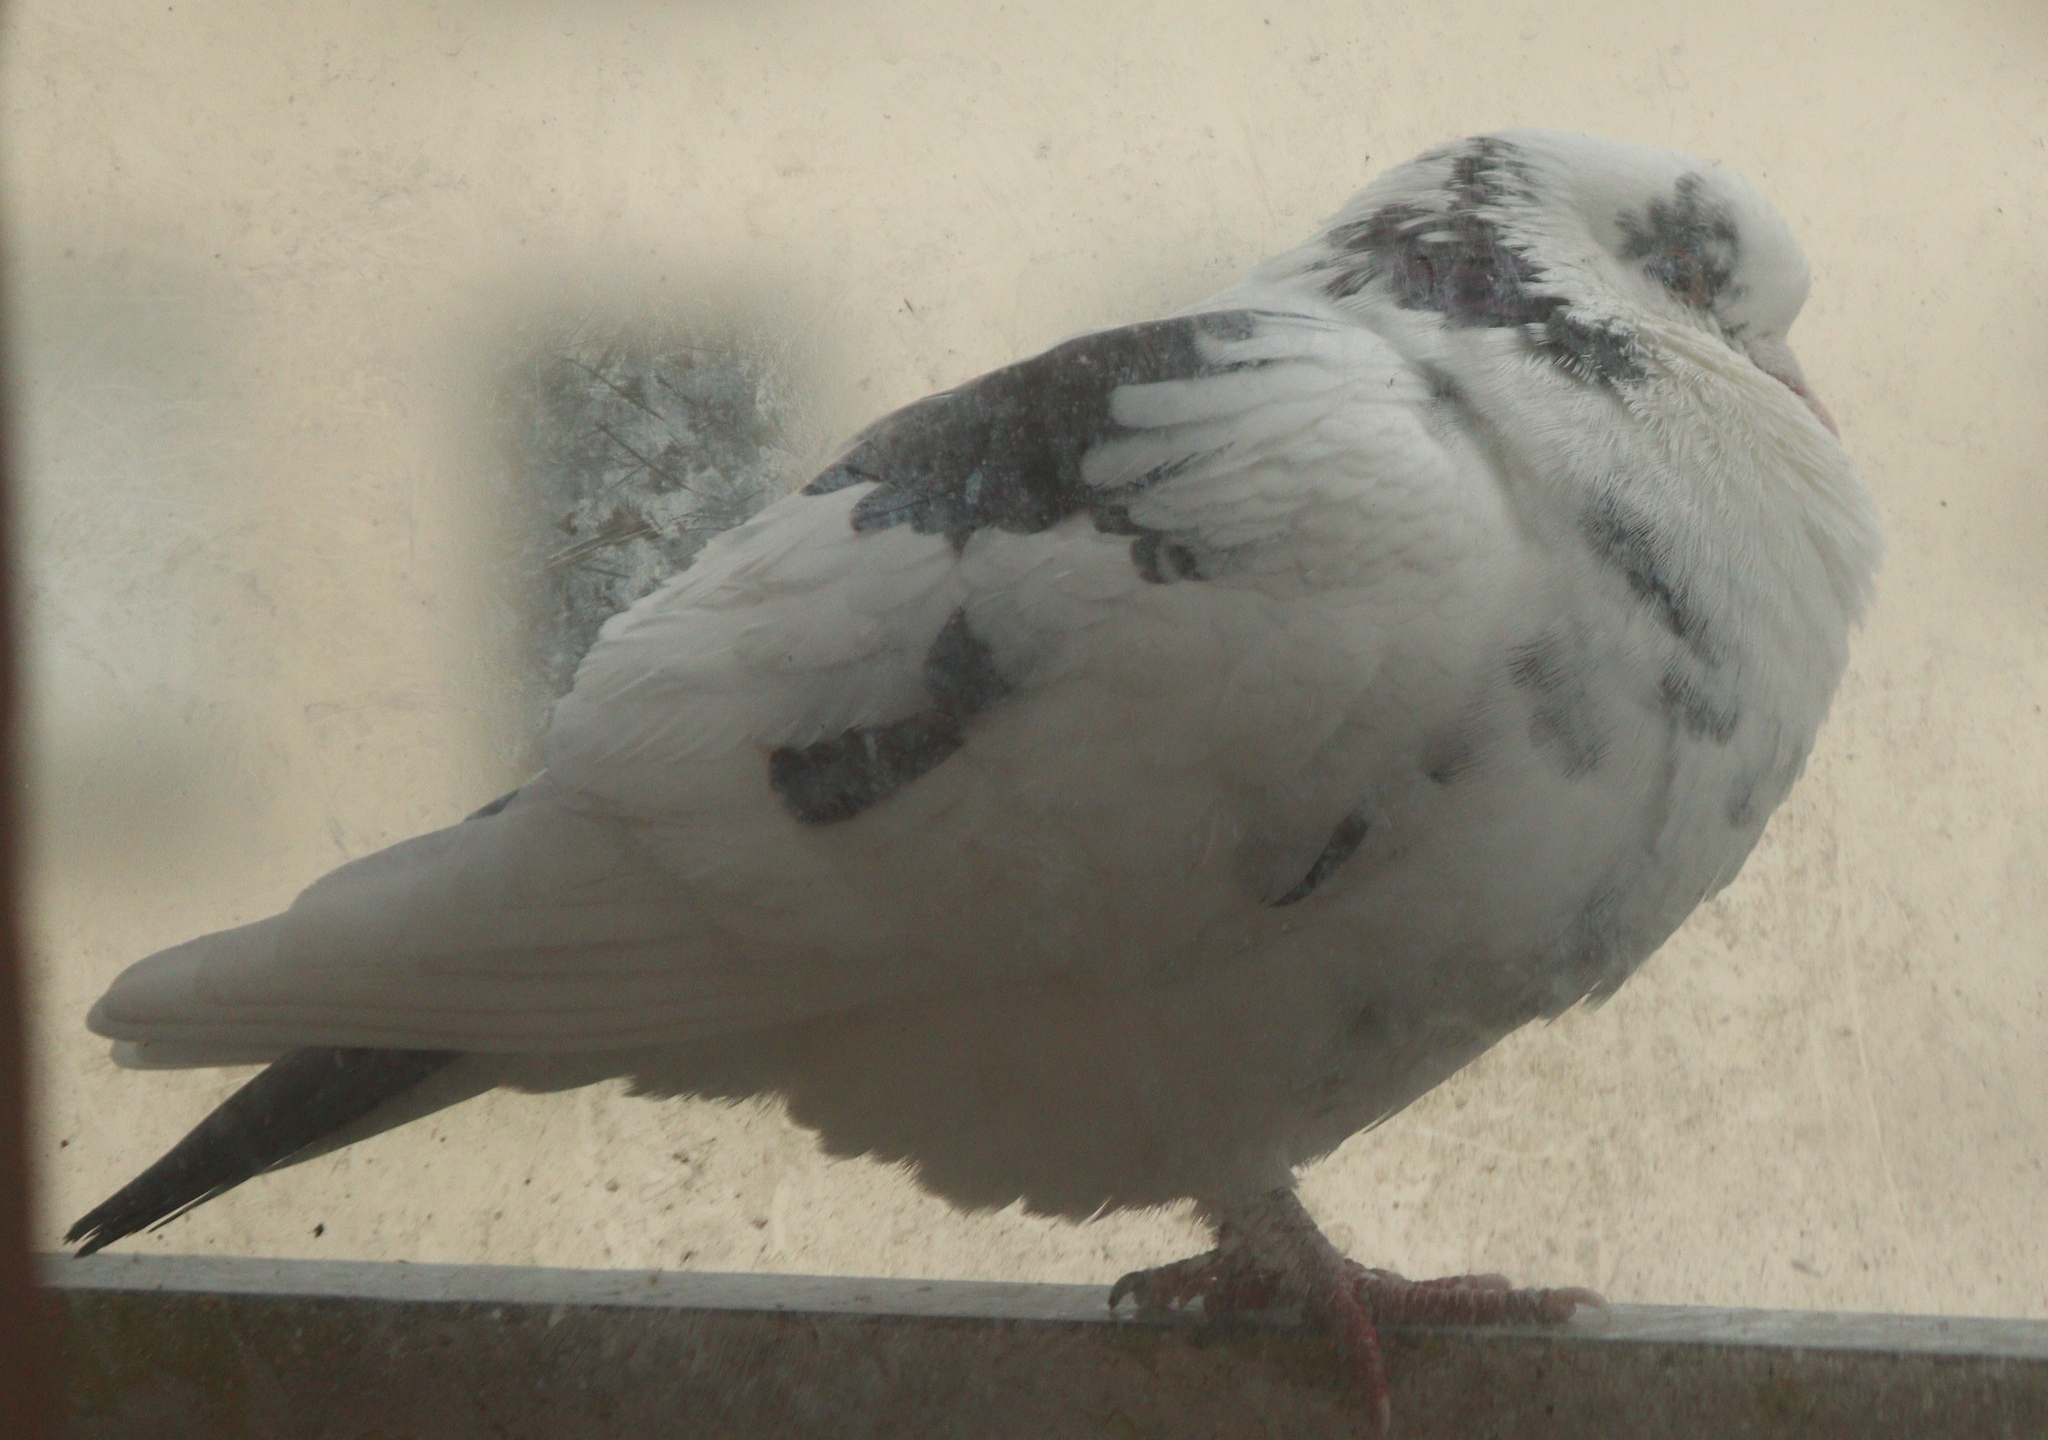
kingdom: Animalia
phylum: Chordata
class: Aves
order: Columbiformes
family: Columbidae
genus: Columba
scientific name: Columba livia
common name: Rock pigeon
